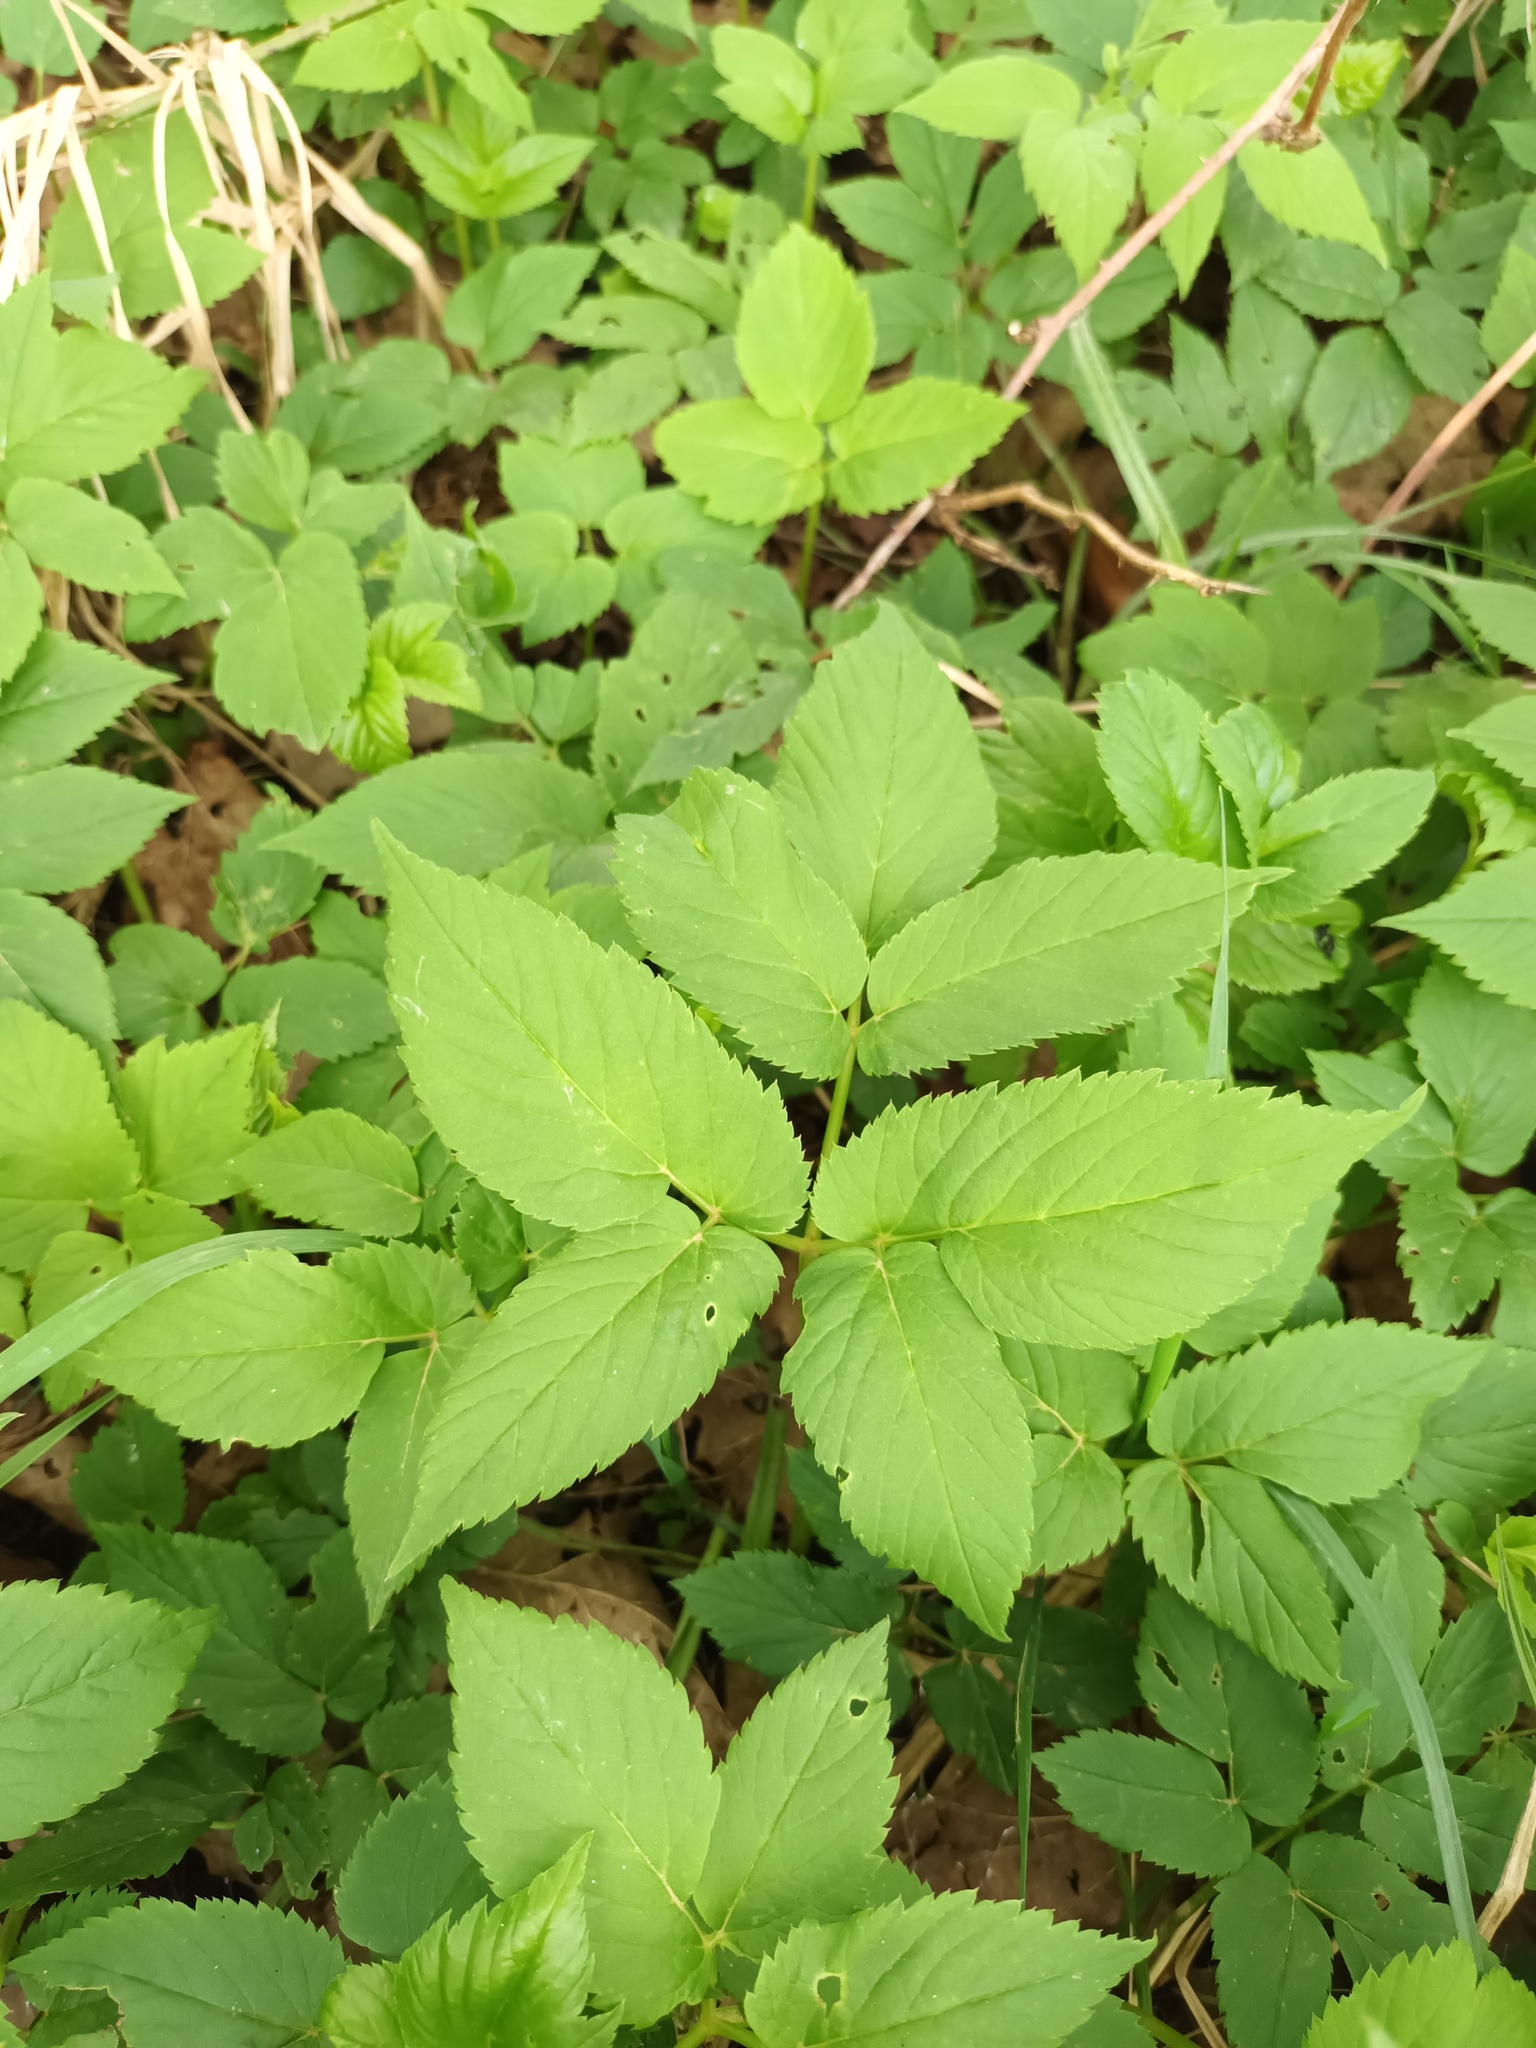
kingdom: Plantae
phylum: Tracheophyta
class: Magnoliopsida
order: Apiales
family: Apiaceae
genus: Aegopodium
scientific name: Aegopodium podagraria
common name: Ground-elder
